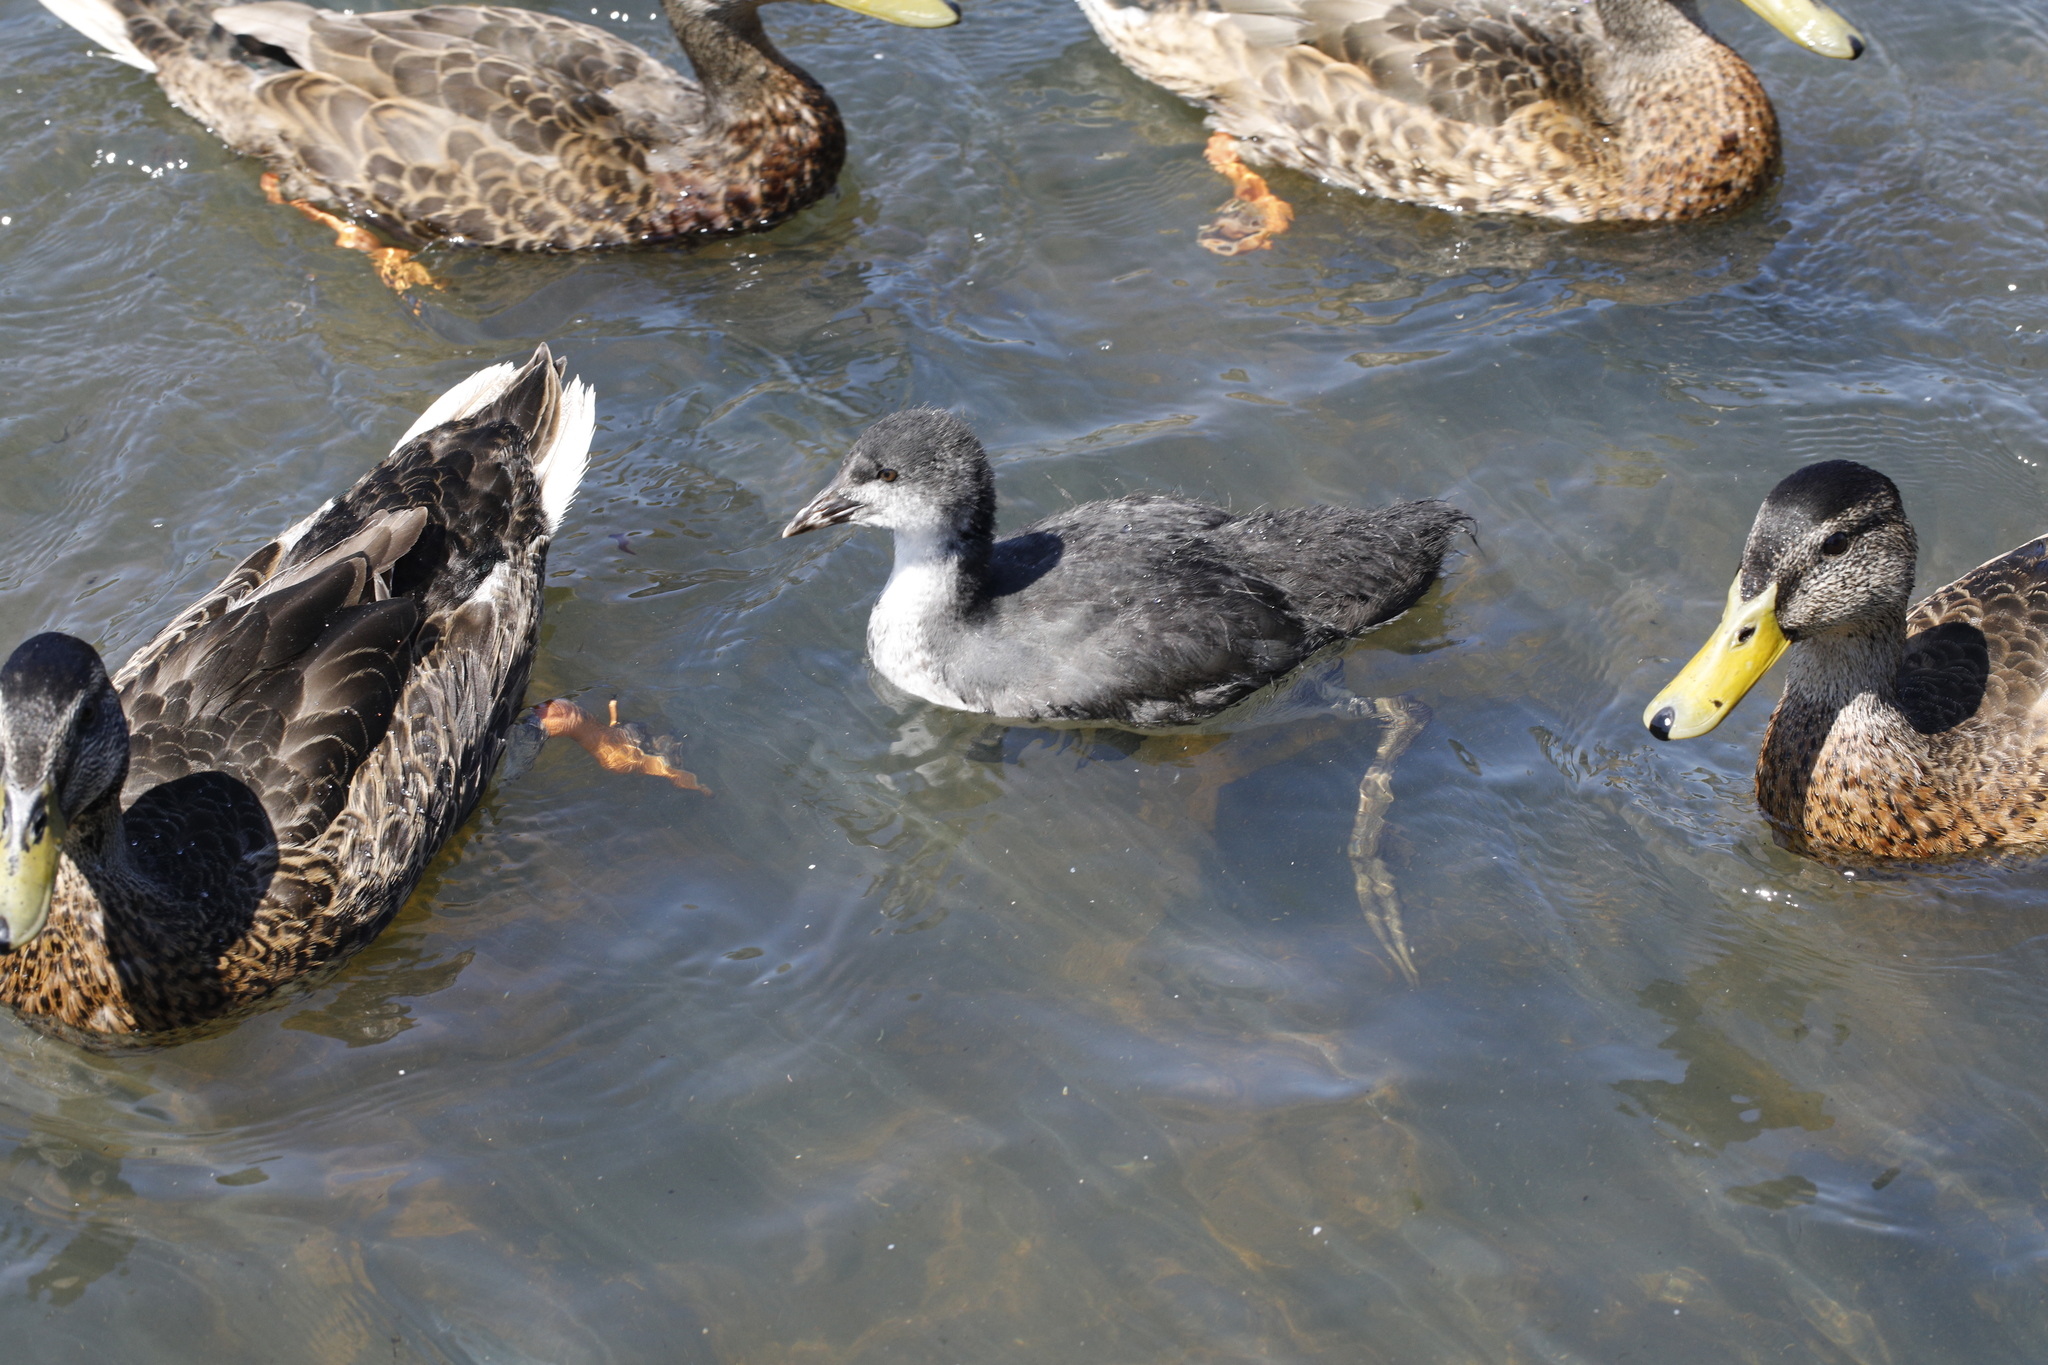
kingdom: Animalia
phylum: Chordata
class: Aves
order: Gruiformes
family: Rallidae
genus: Fulica
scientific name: Fulica atra
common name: Eurasian coot
